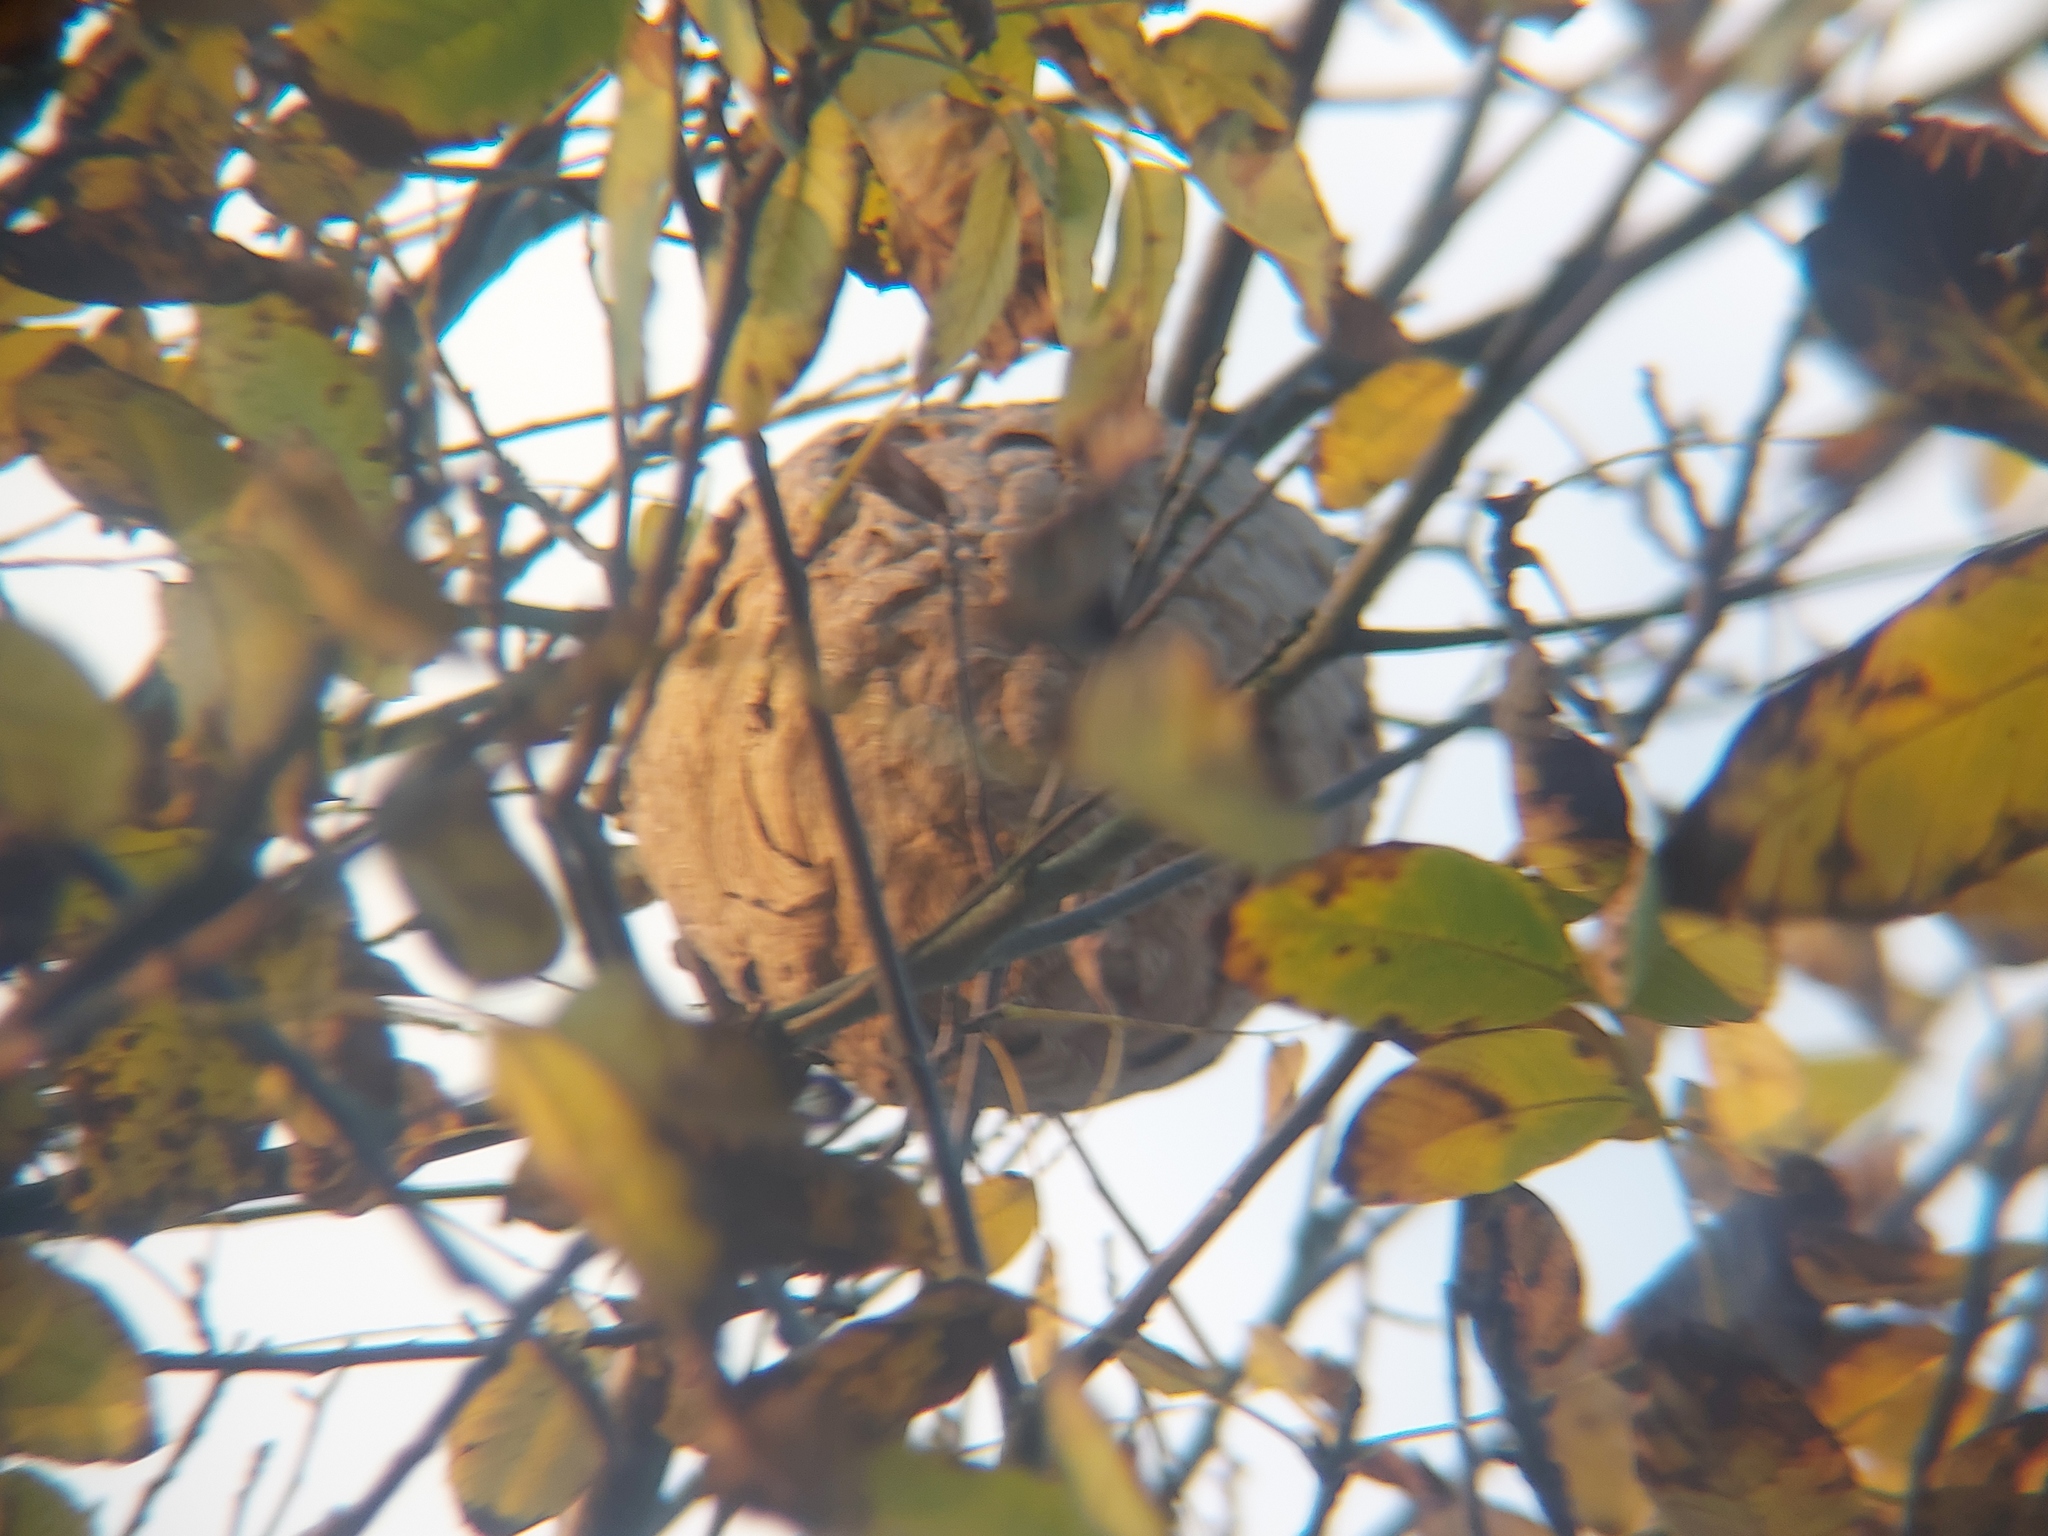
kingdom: Animalia
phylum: Arthropoda
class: Insecta
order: Hymenoptera
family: Vespidae
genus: Vespa
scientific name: Vespa velutina
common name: Asian hornet
